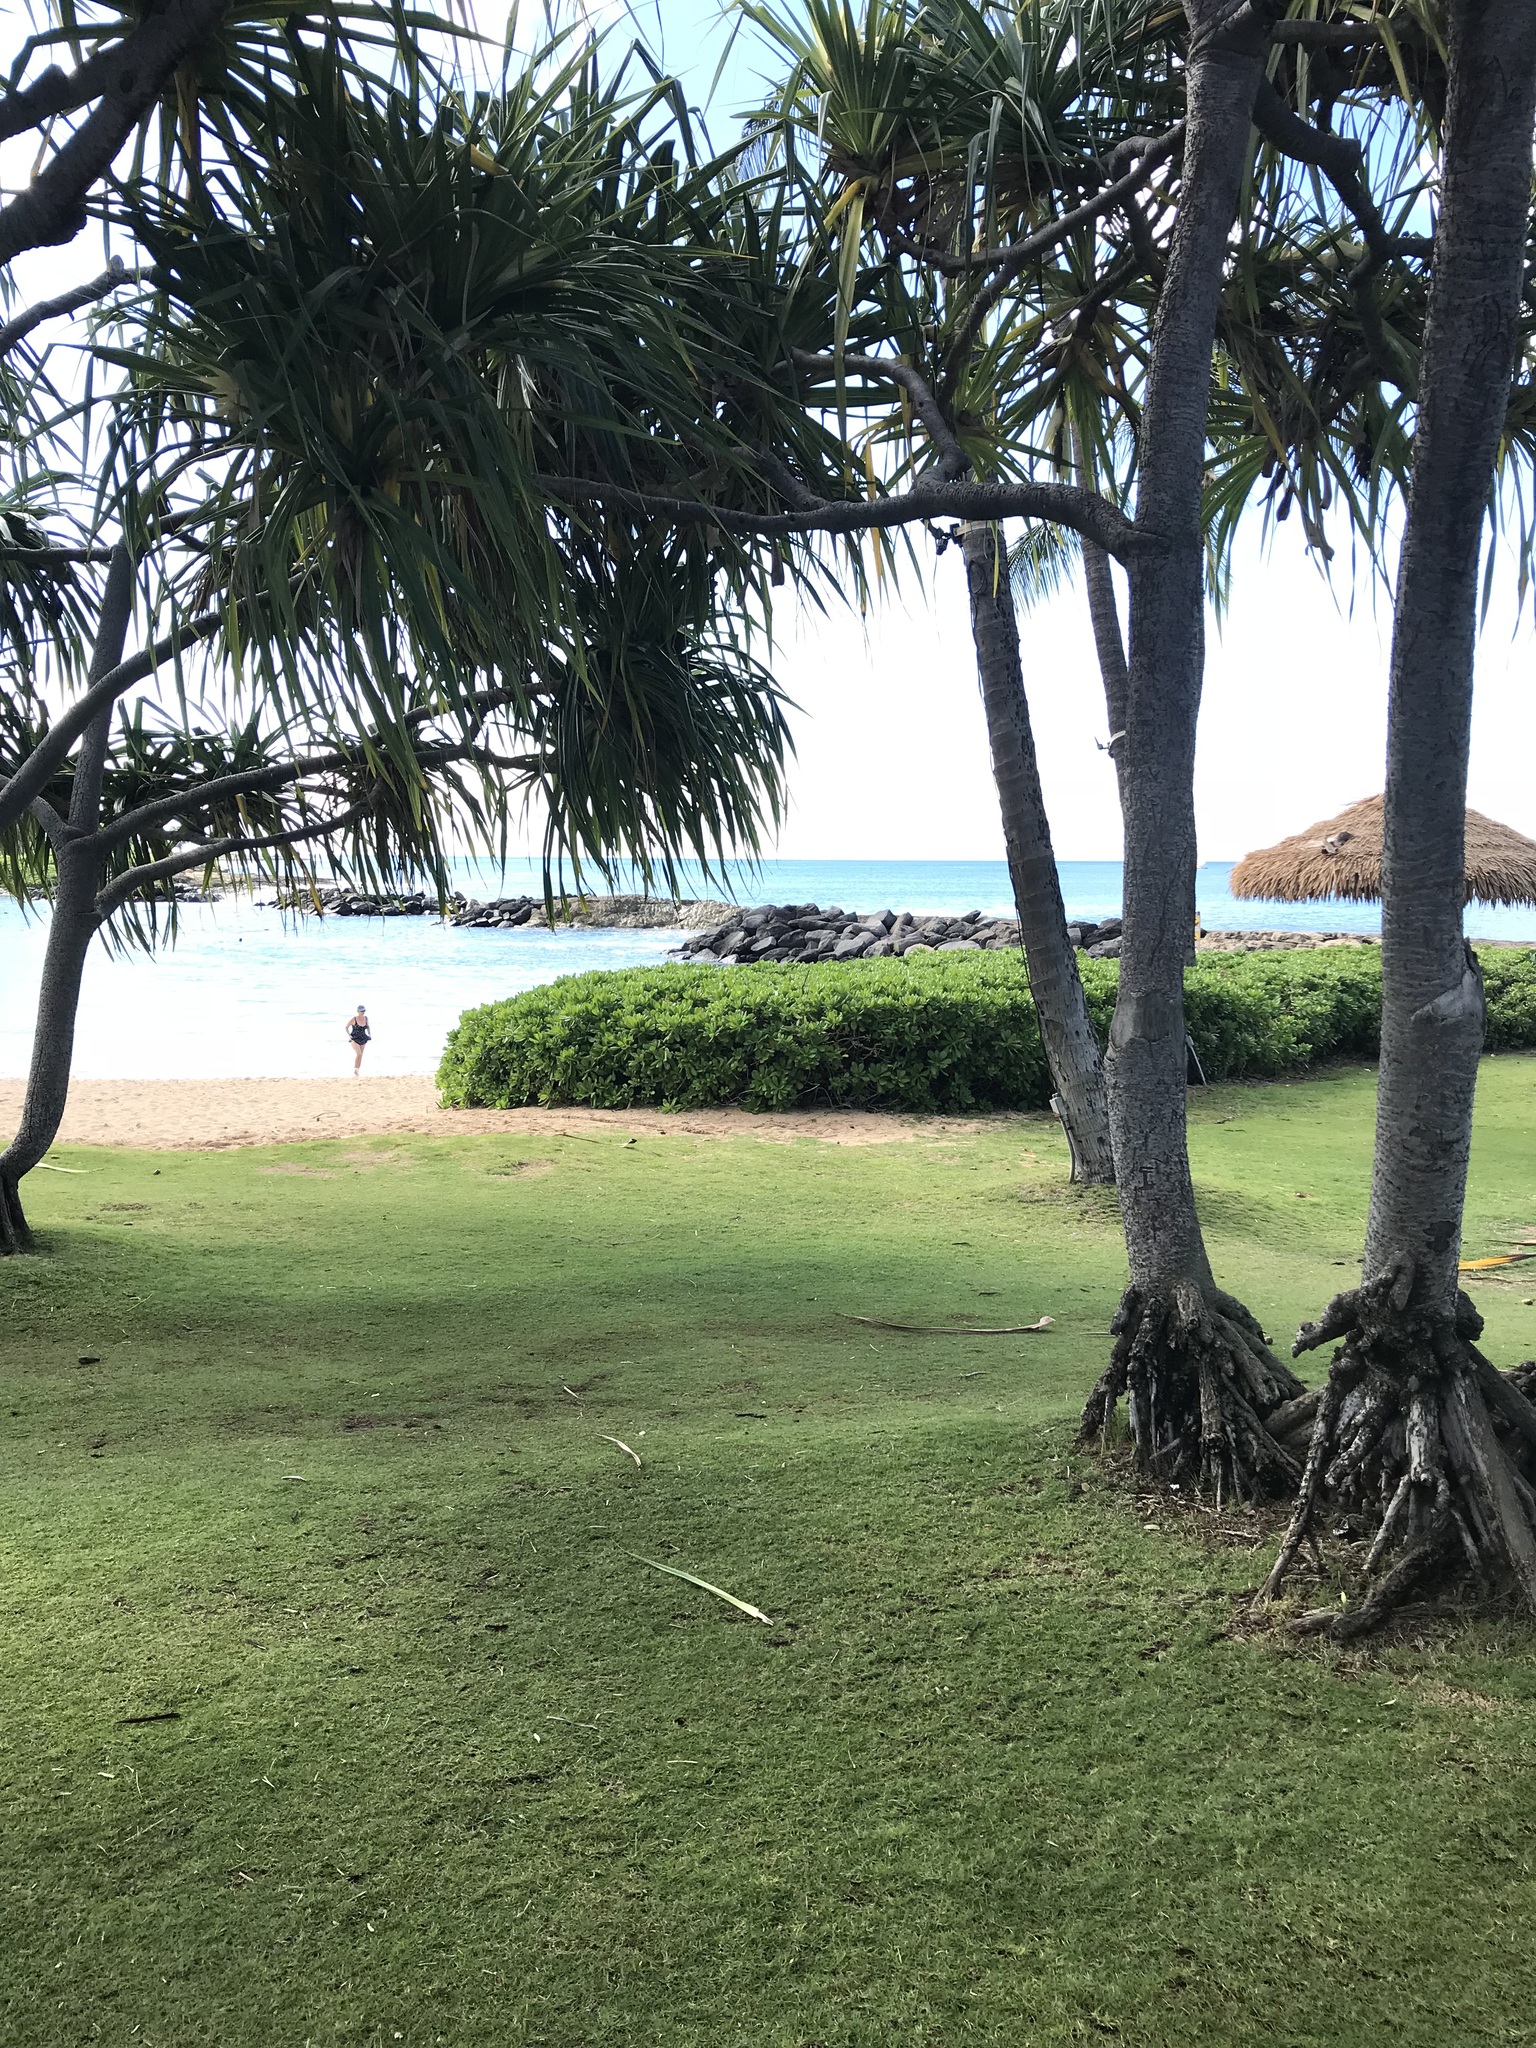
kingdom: Plantae
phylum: Tracheophyta
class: Liliopsida
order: Pandanales
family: Pandanaceae
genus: Pandanus
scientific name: Pandanus tectorius
